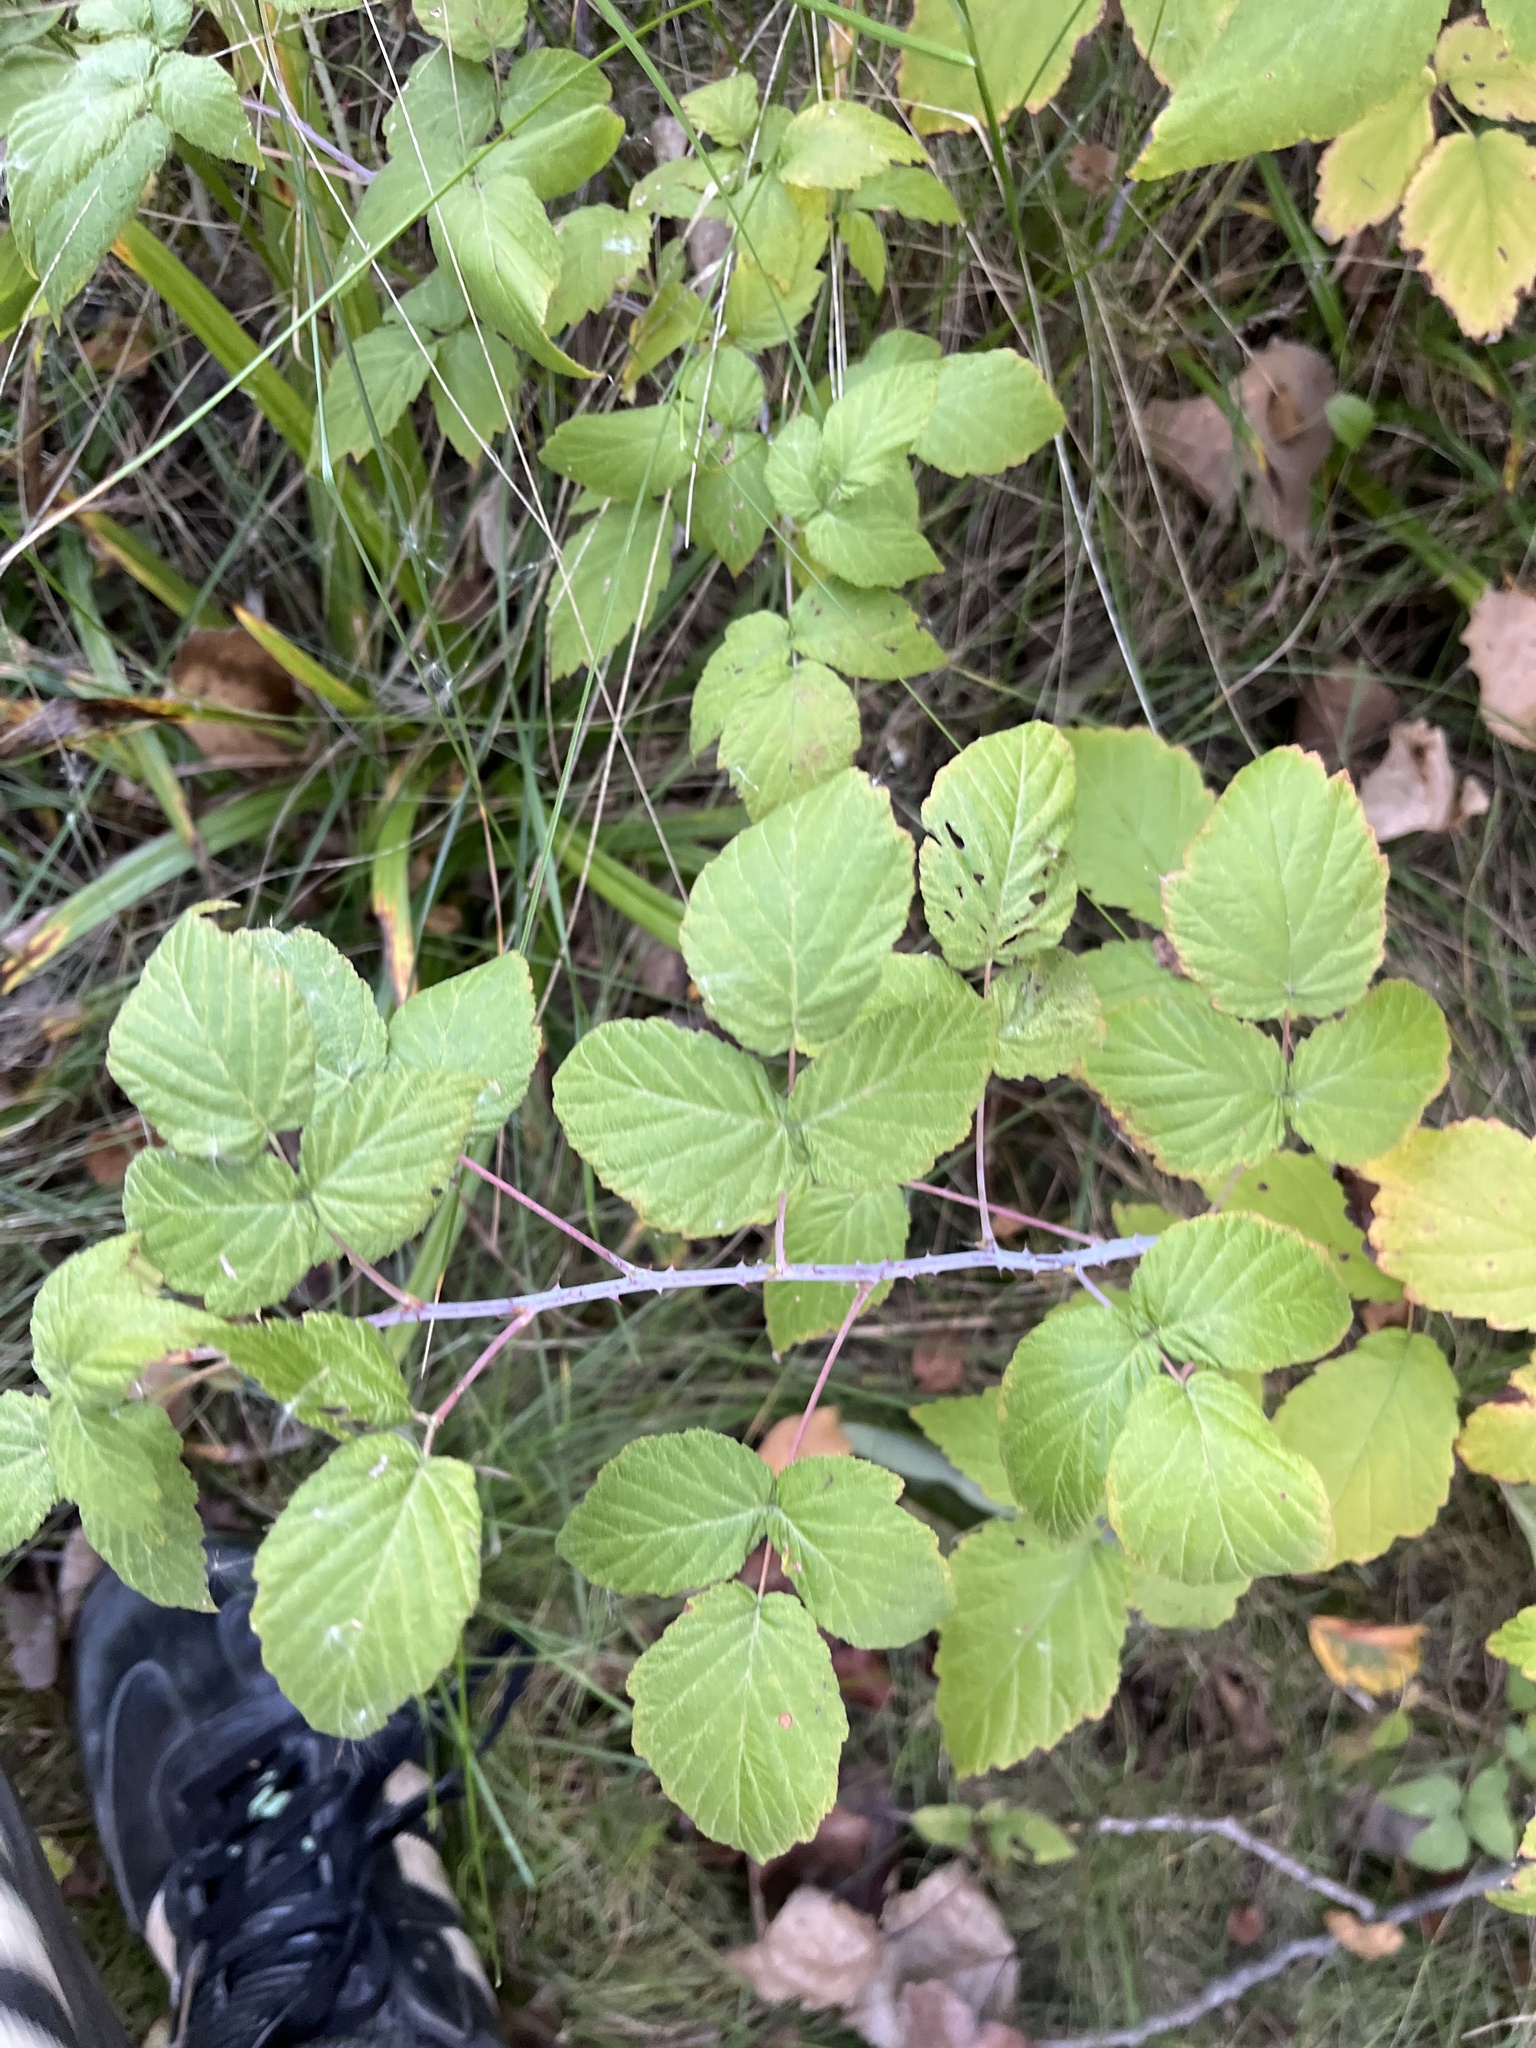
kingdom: Plantae
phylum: Tracheophyta
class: Magnoliopsida
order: Rosales
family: Rosaceae
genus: Rubus
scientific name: Rubus occidentalis
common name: Black raspberry
